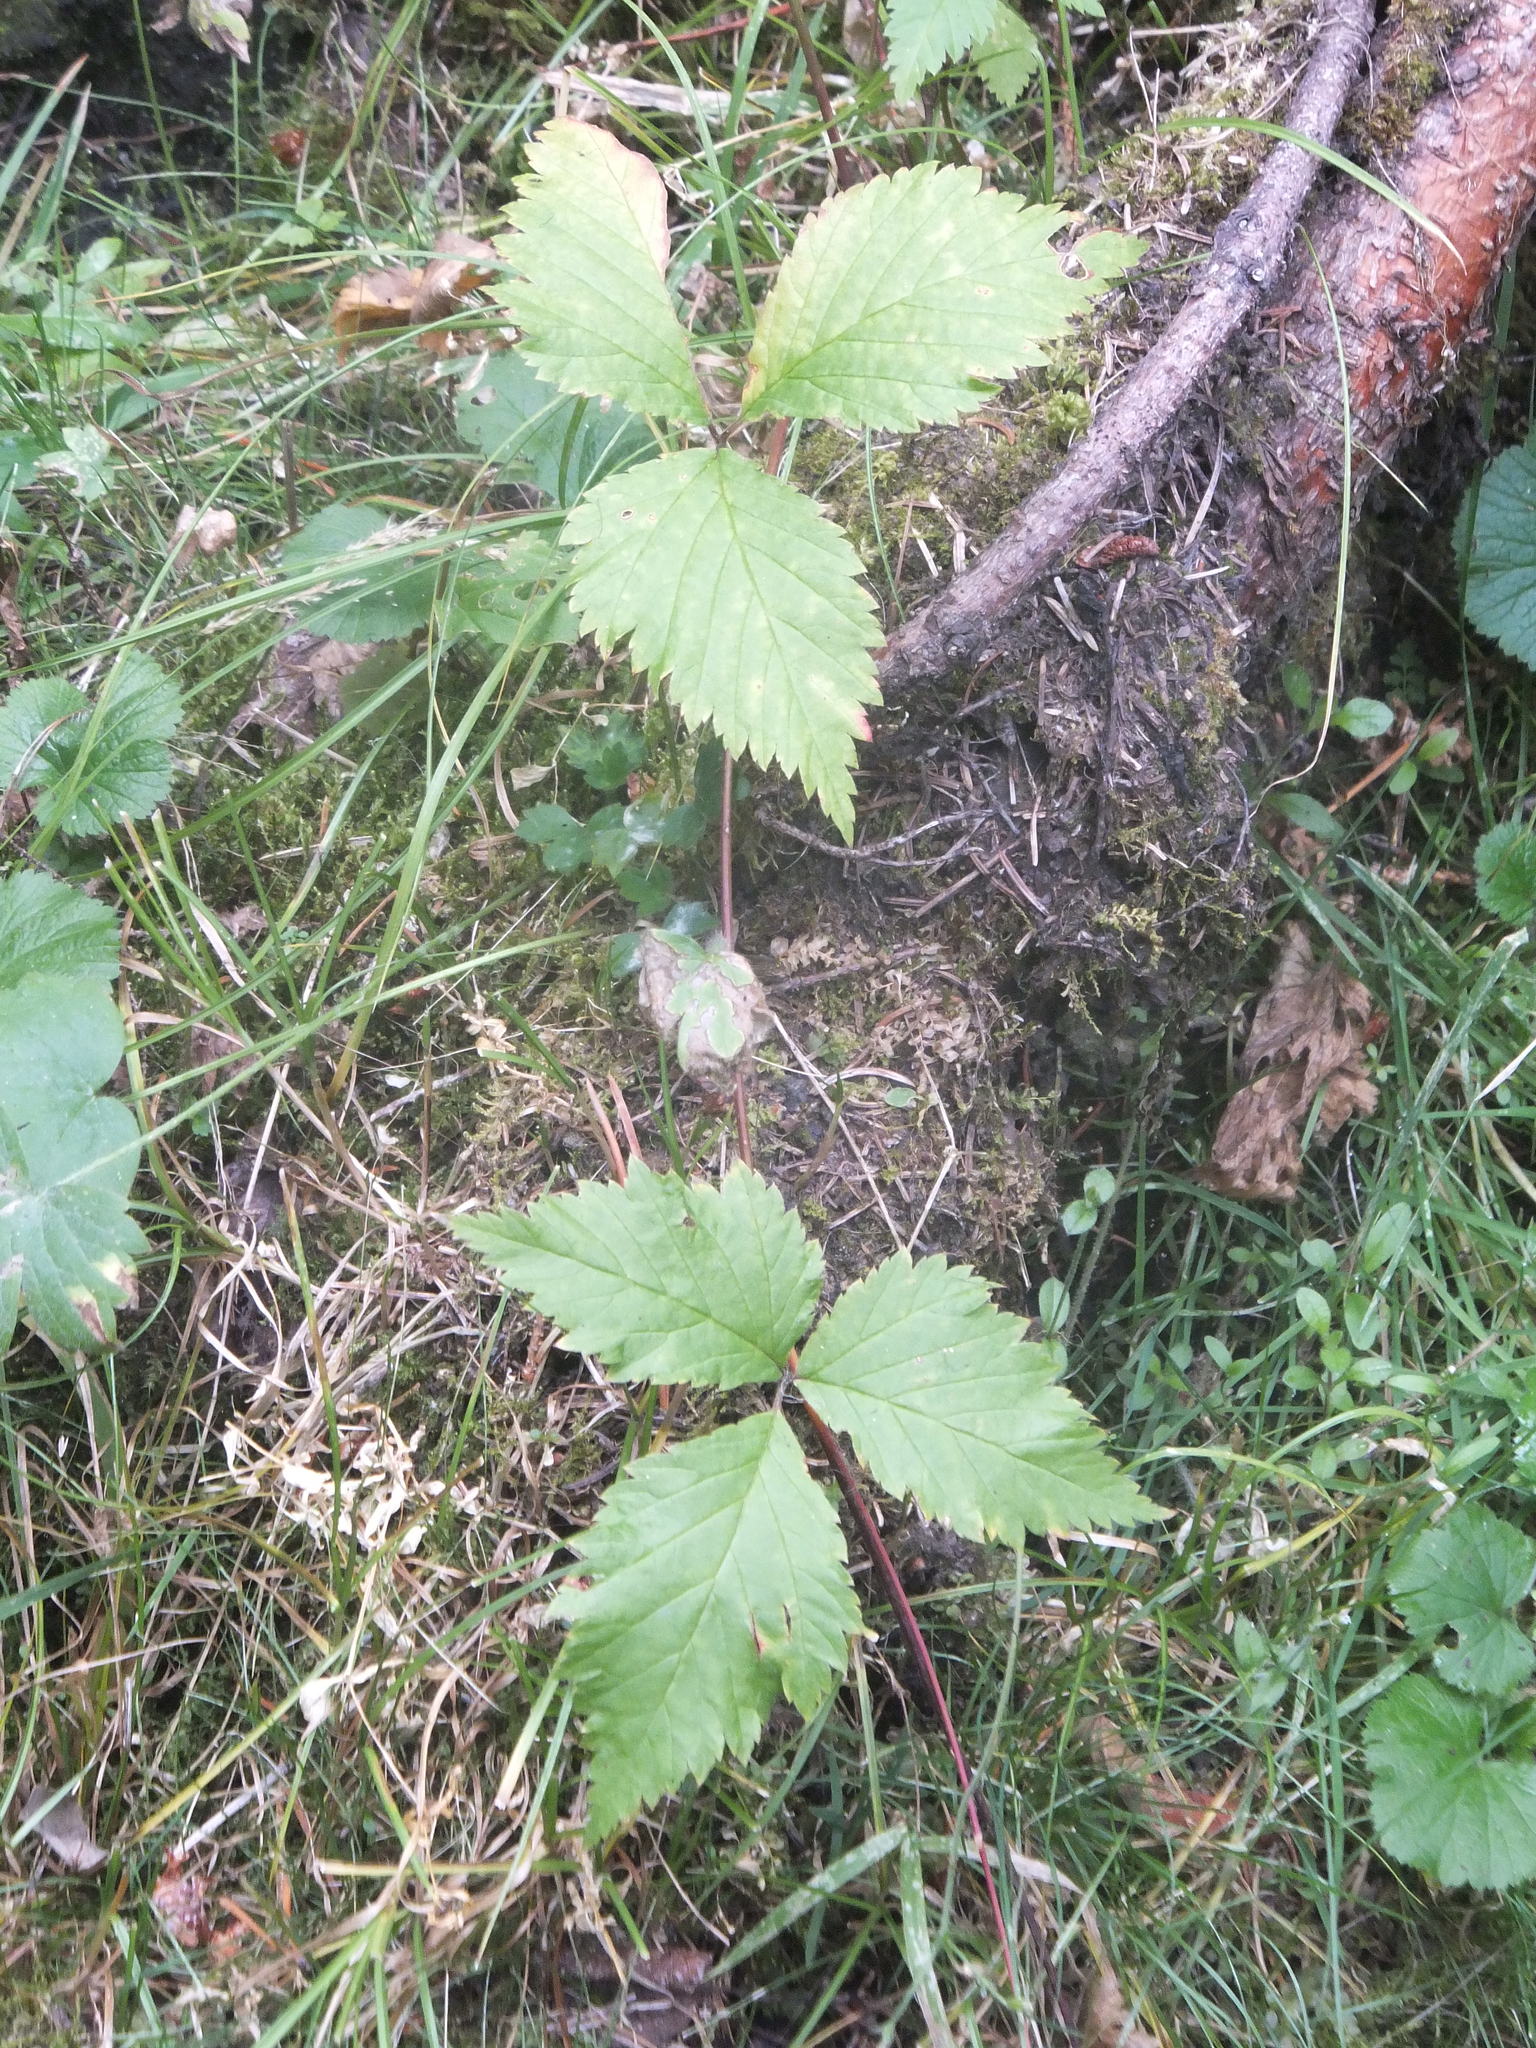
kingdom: Plantae
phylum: Tracheophyta
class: Magnoliopsida
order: Rosales
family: Rosaceae
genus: Rubus
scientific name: Rubus pubescens
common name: Dwarf raspberry
